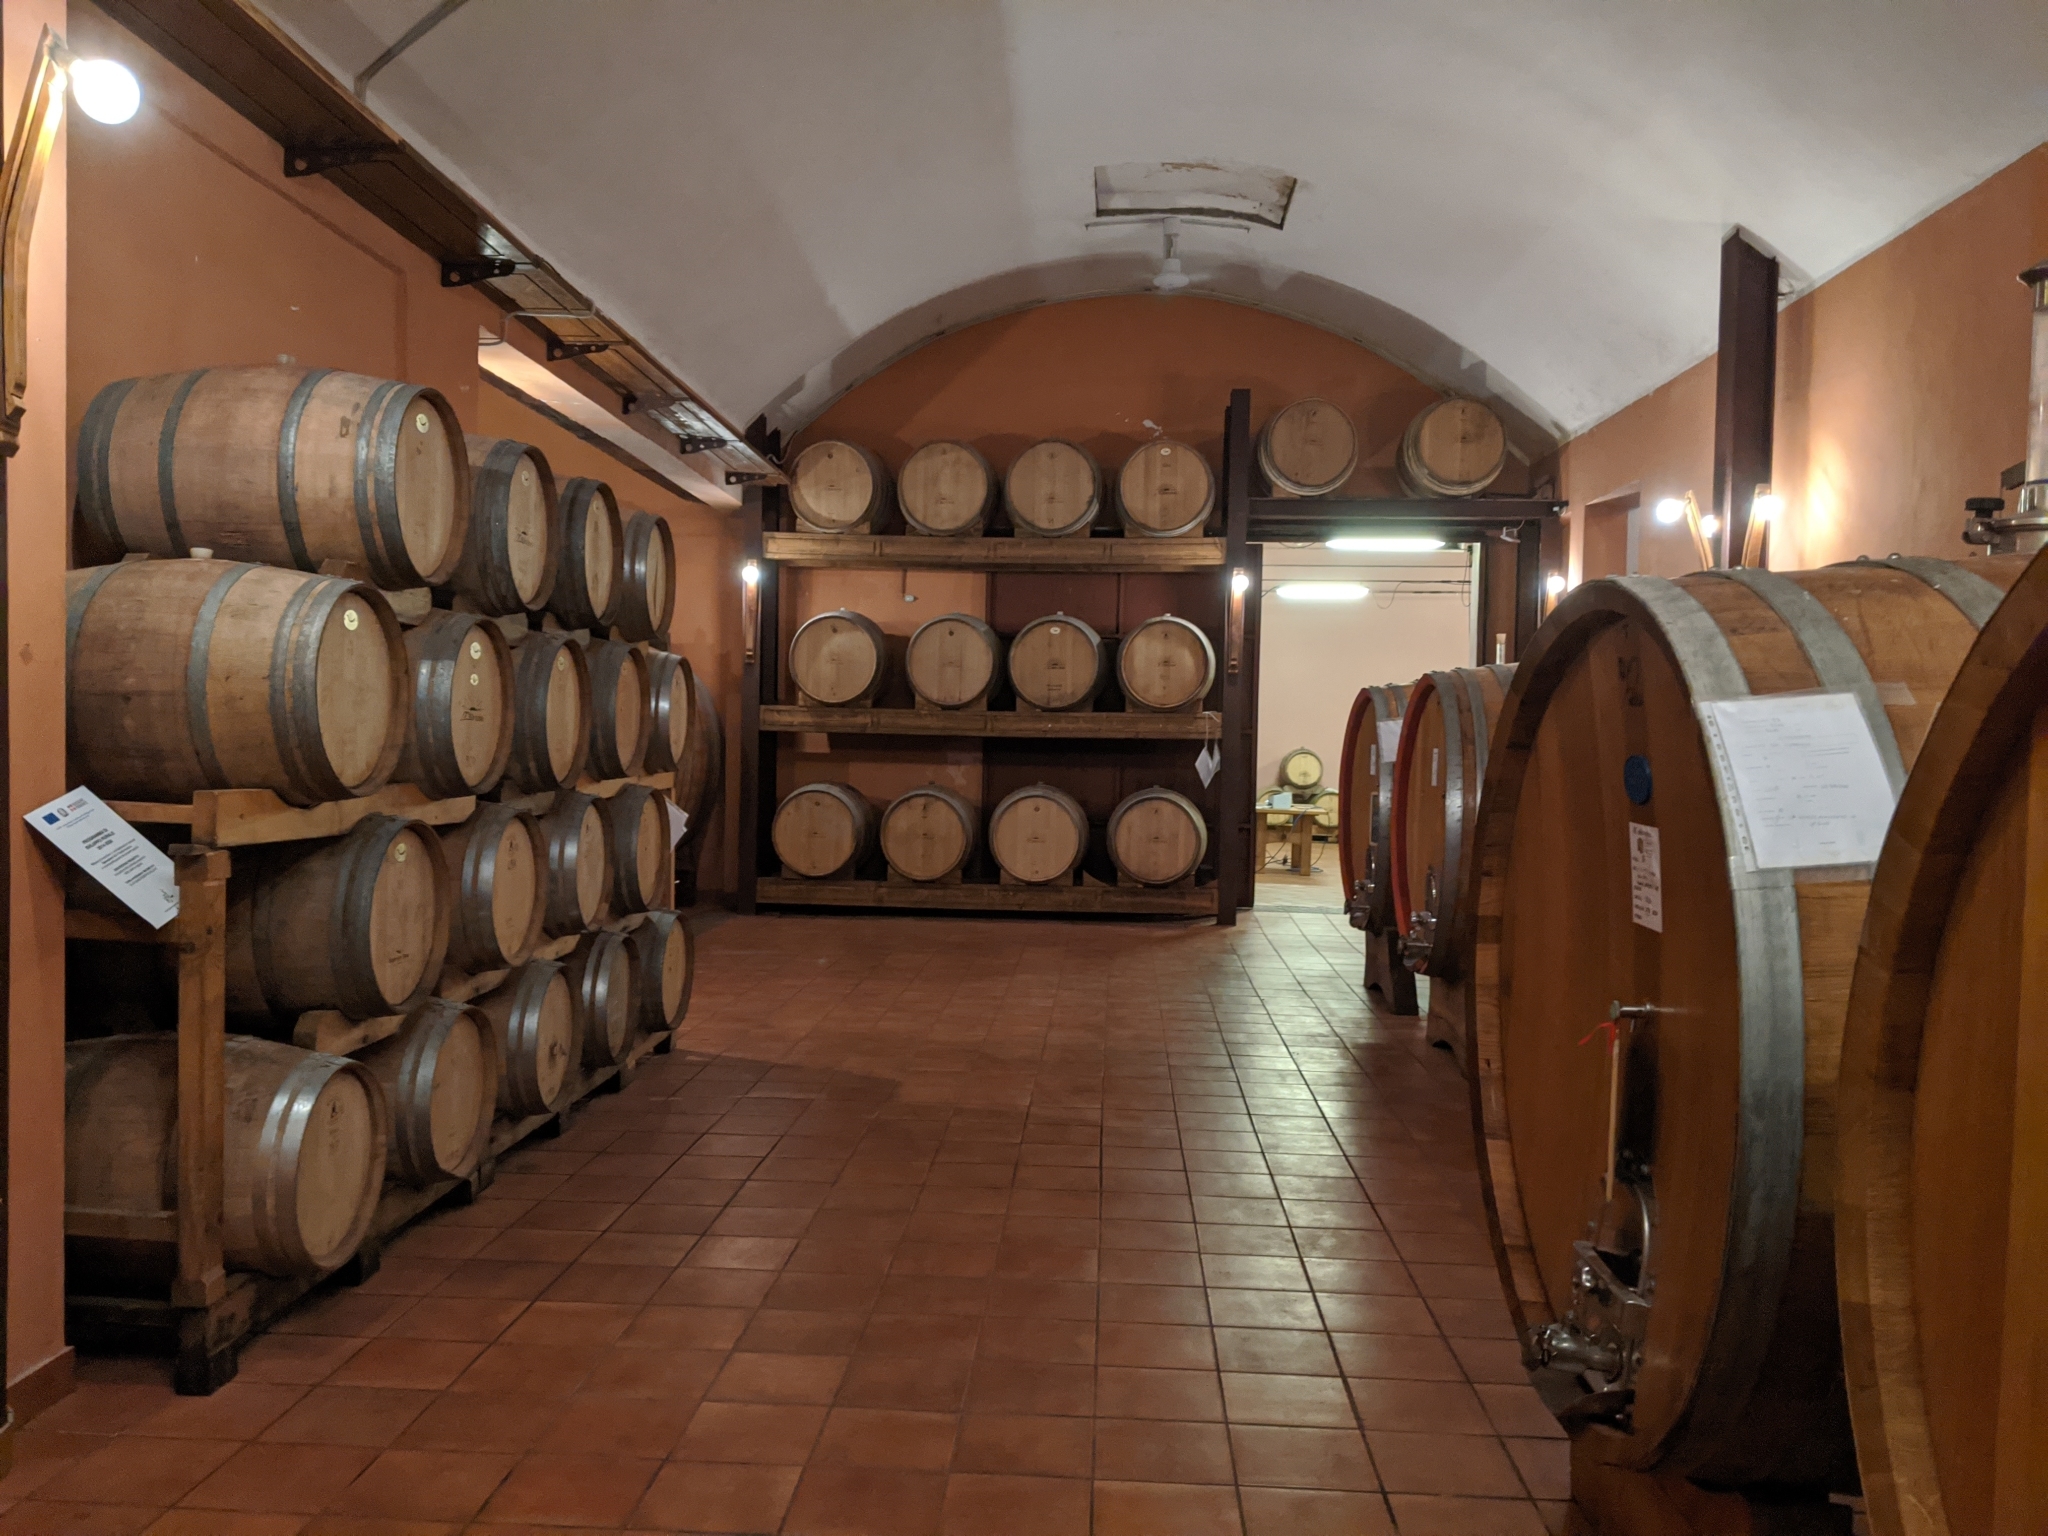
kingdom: Animalia
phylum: Arthropoda
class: Insecta
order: Hemiptera
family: Pentatomidae
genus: Halyomorpha
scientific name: Halyomorpha halys
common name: Brown marmorated stink bug
